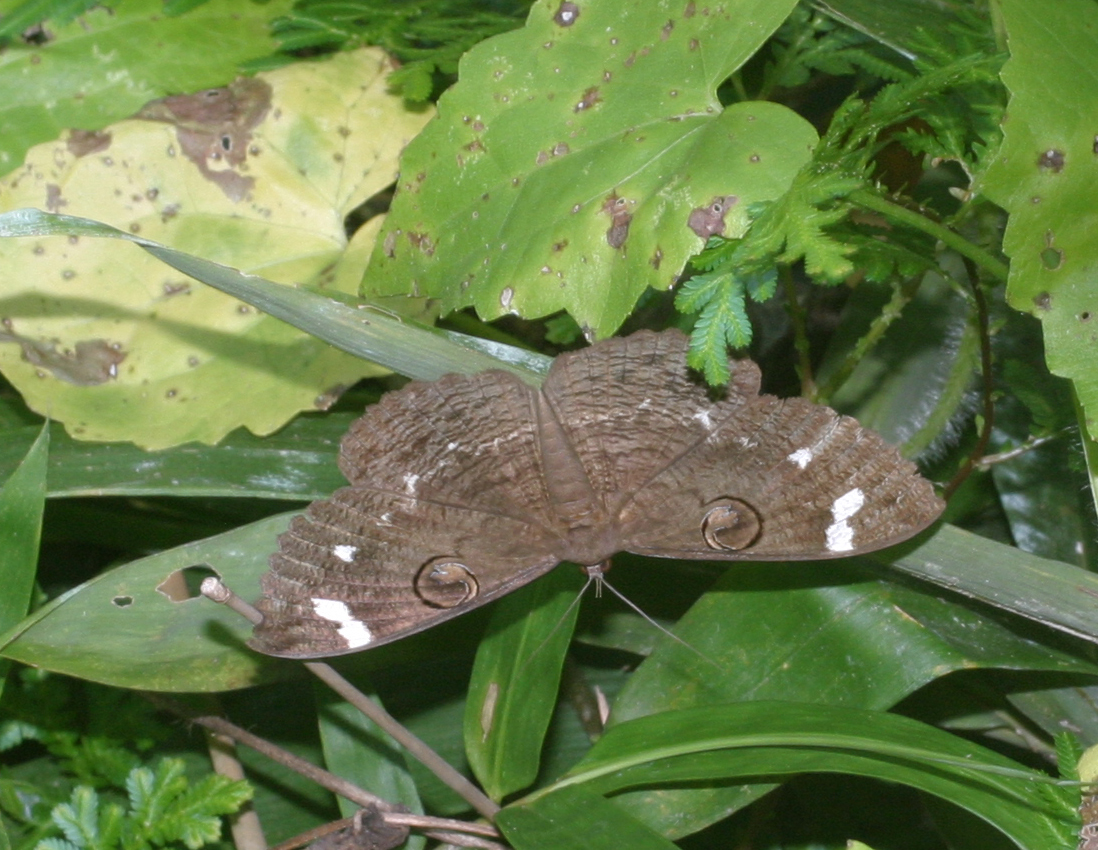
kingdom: Animalia
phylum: Arthropoda
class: Insecta
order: Lepidoptera
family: Erebidae
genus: Erebus
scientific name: Erebus hieroglyphica
